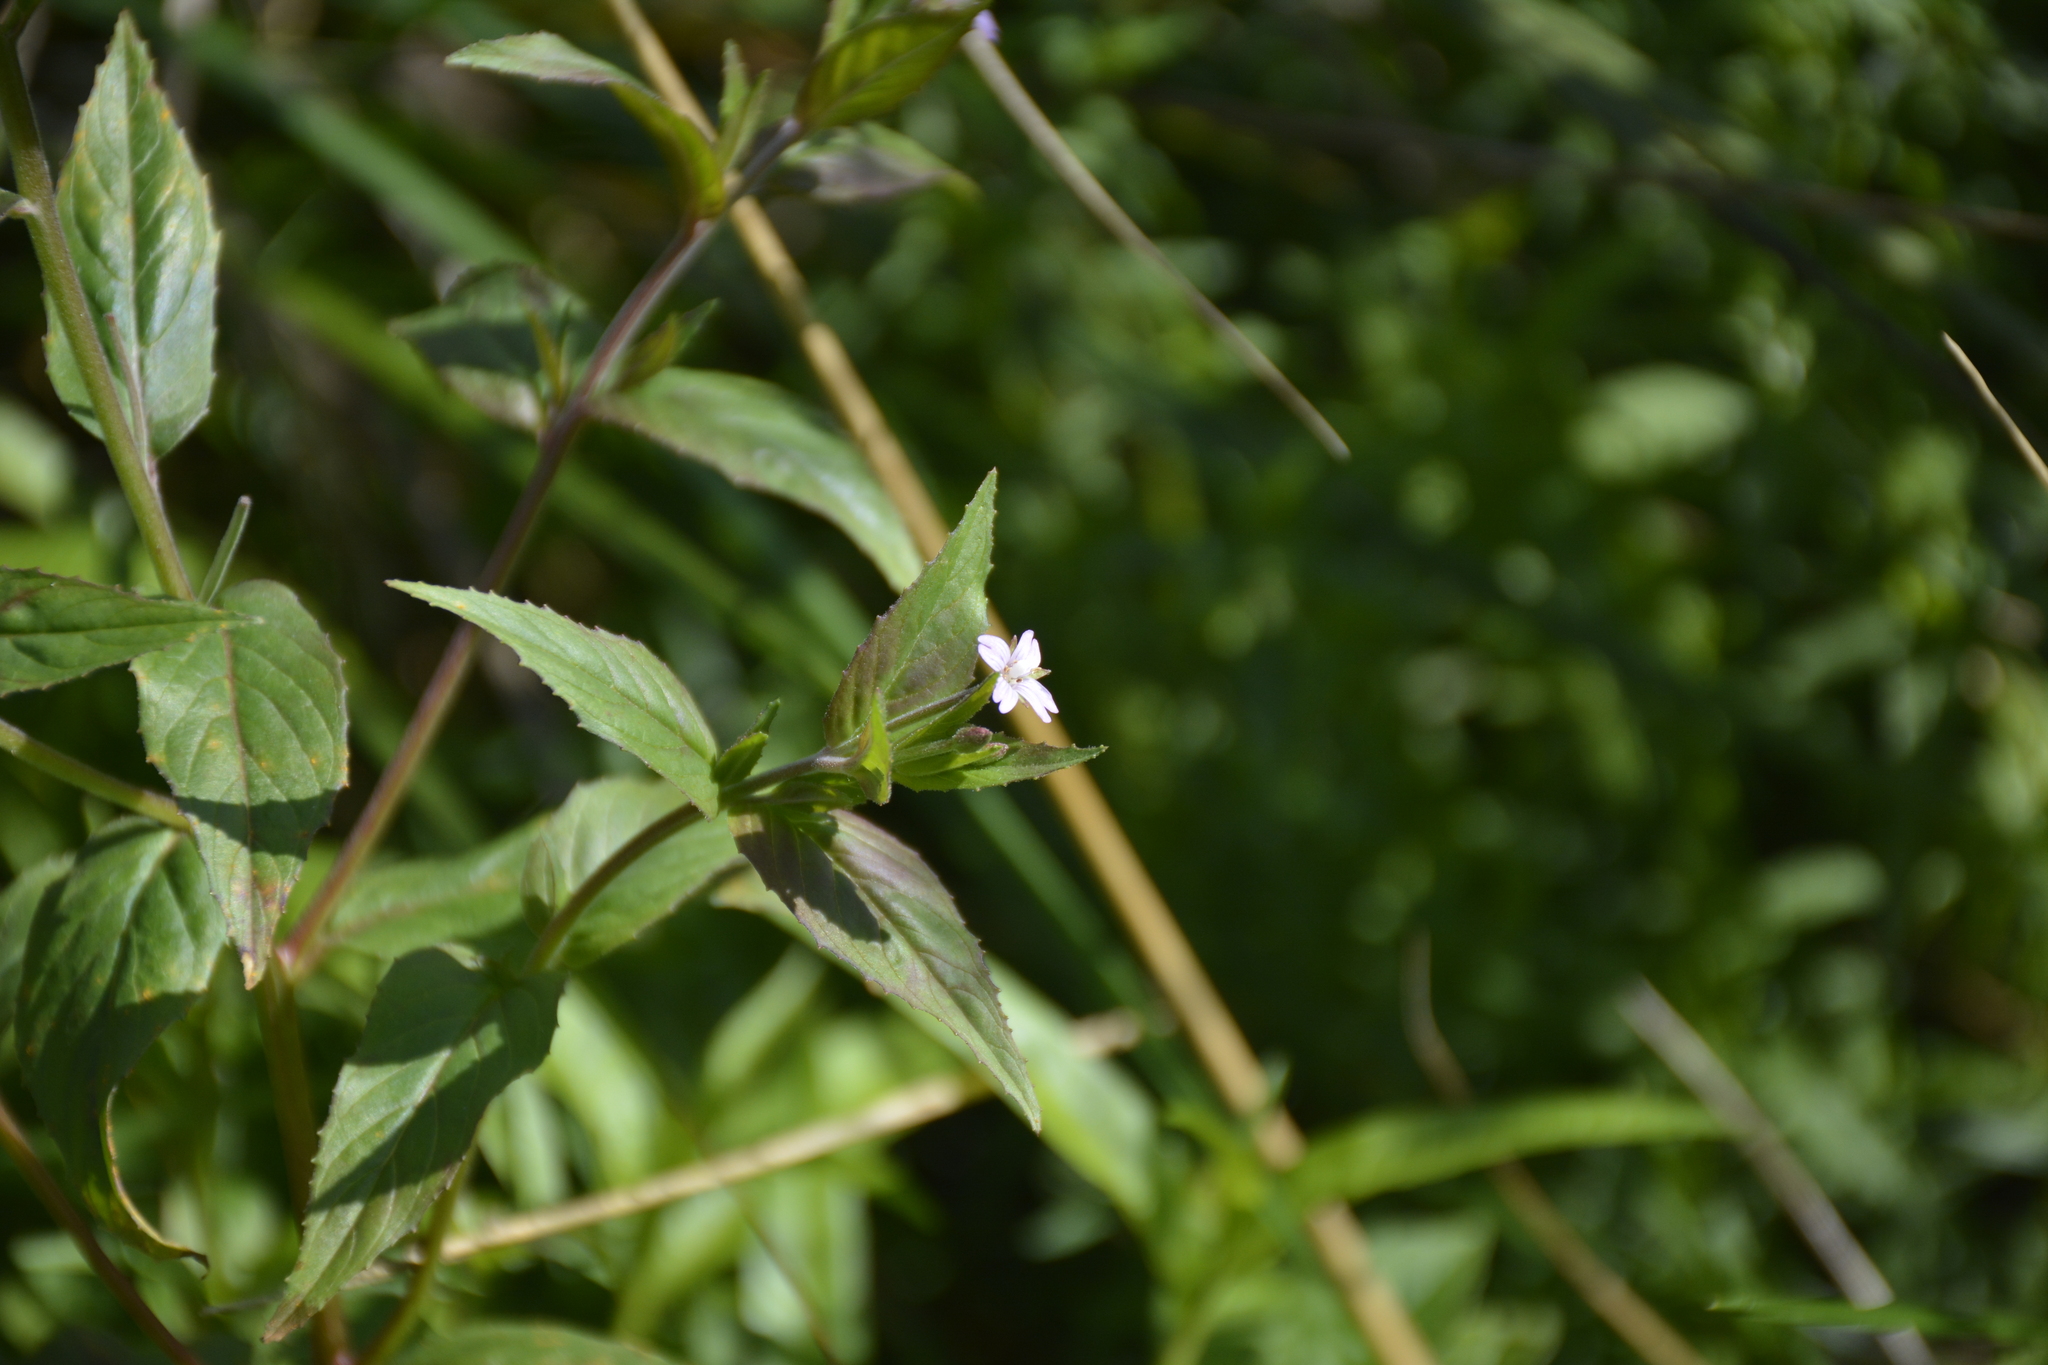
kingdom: Plantae
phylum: Tracheophyta
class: Magnoliopsida
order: Myrtales
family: Onagraceae
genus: Epilobium
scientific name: Epilobium ciliatum
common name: American willowherb
